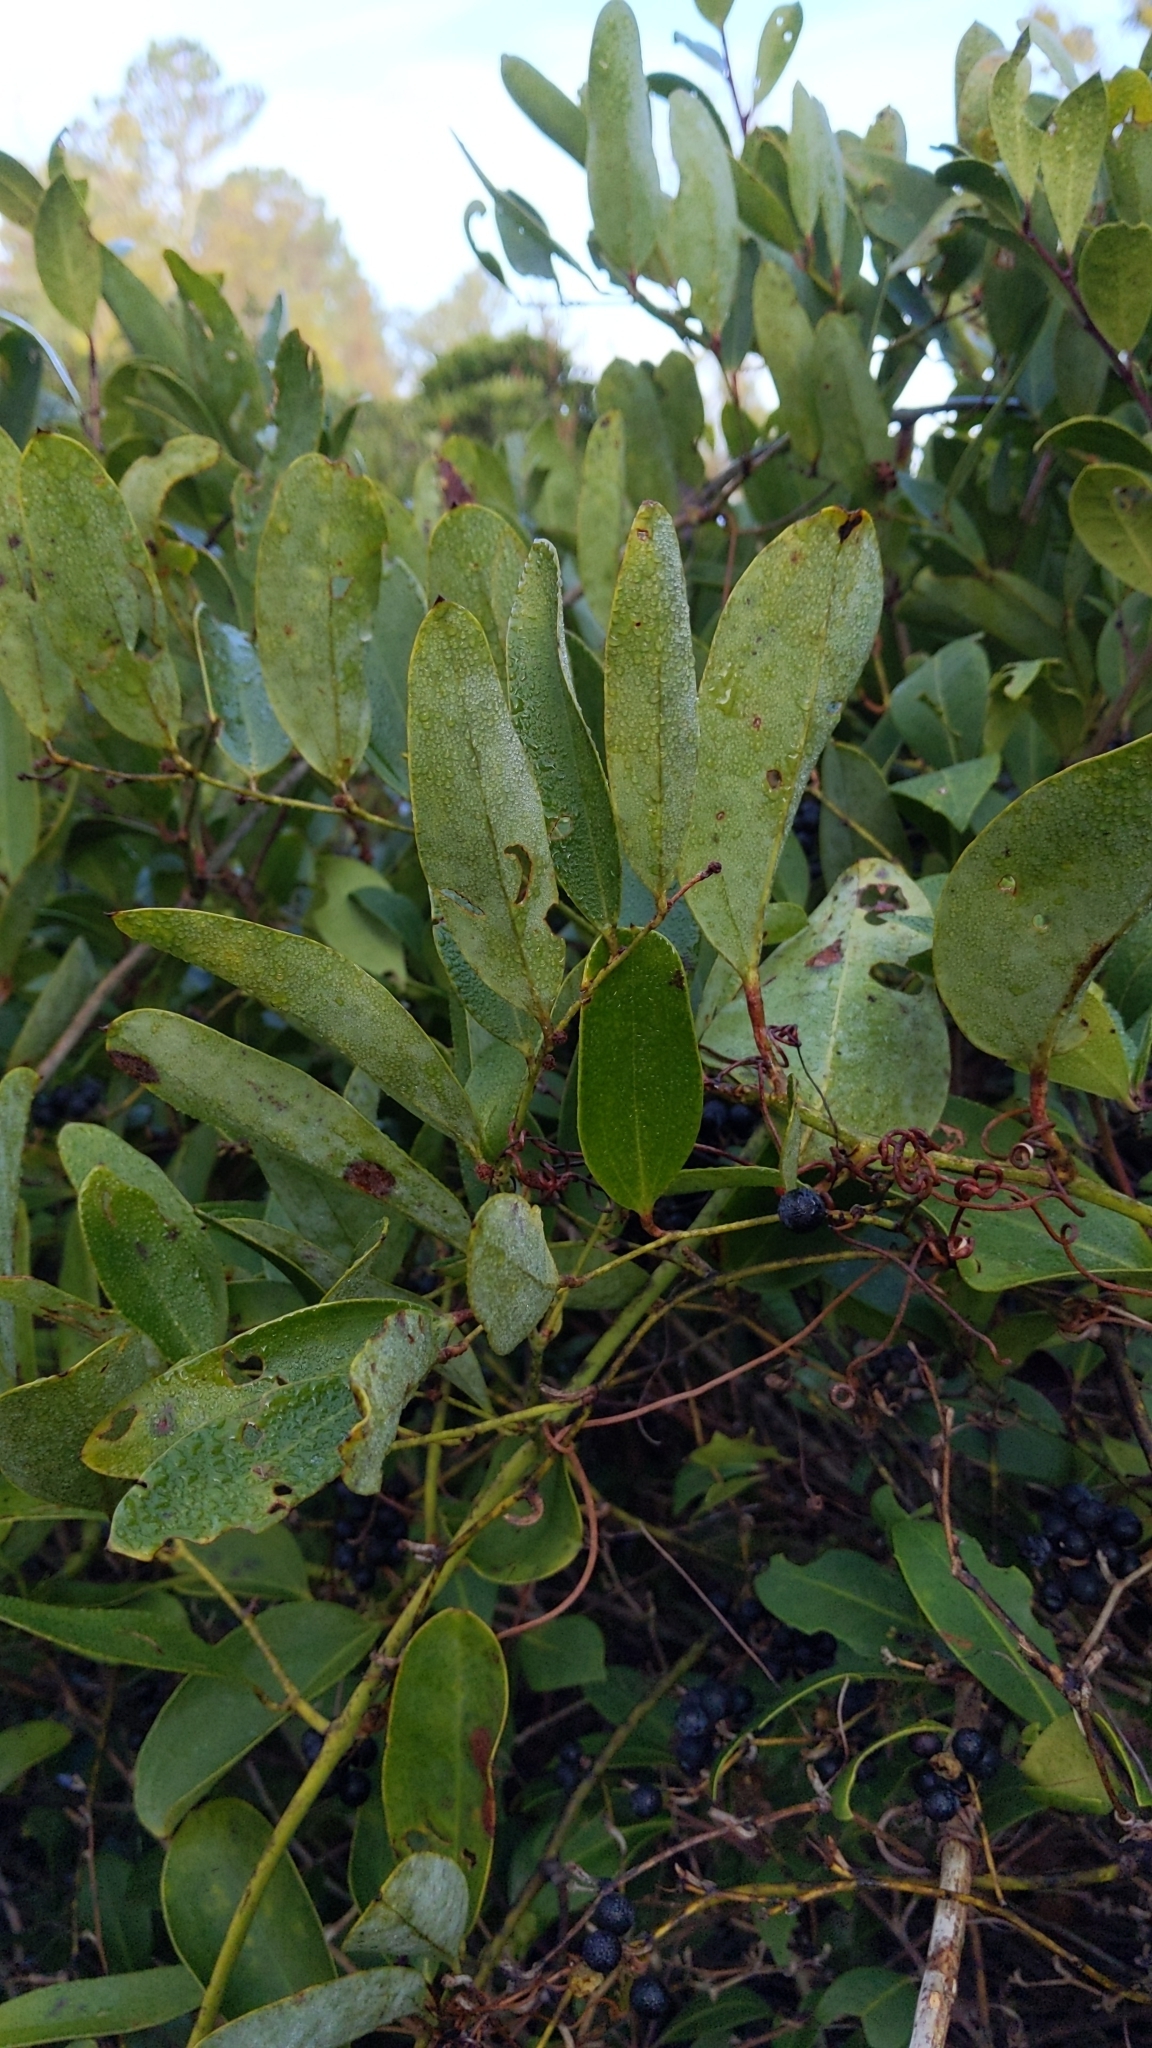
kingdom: Plantae
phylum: Tracheophyta
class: Liliopsida
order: Liliales
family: Smilacaceae
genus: Smilax
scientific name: Smilax laurifolia
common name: Bamboovine
